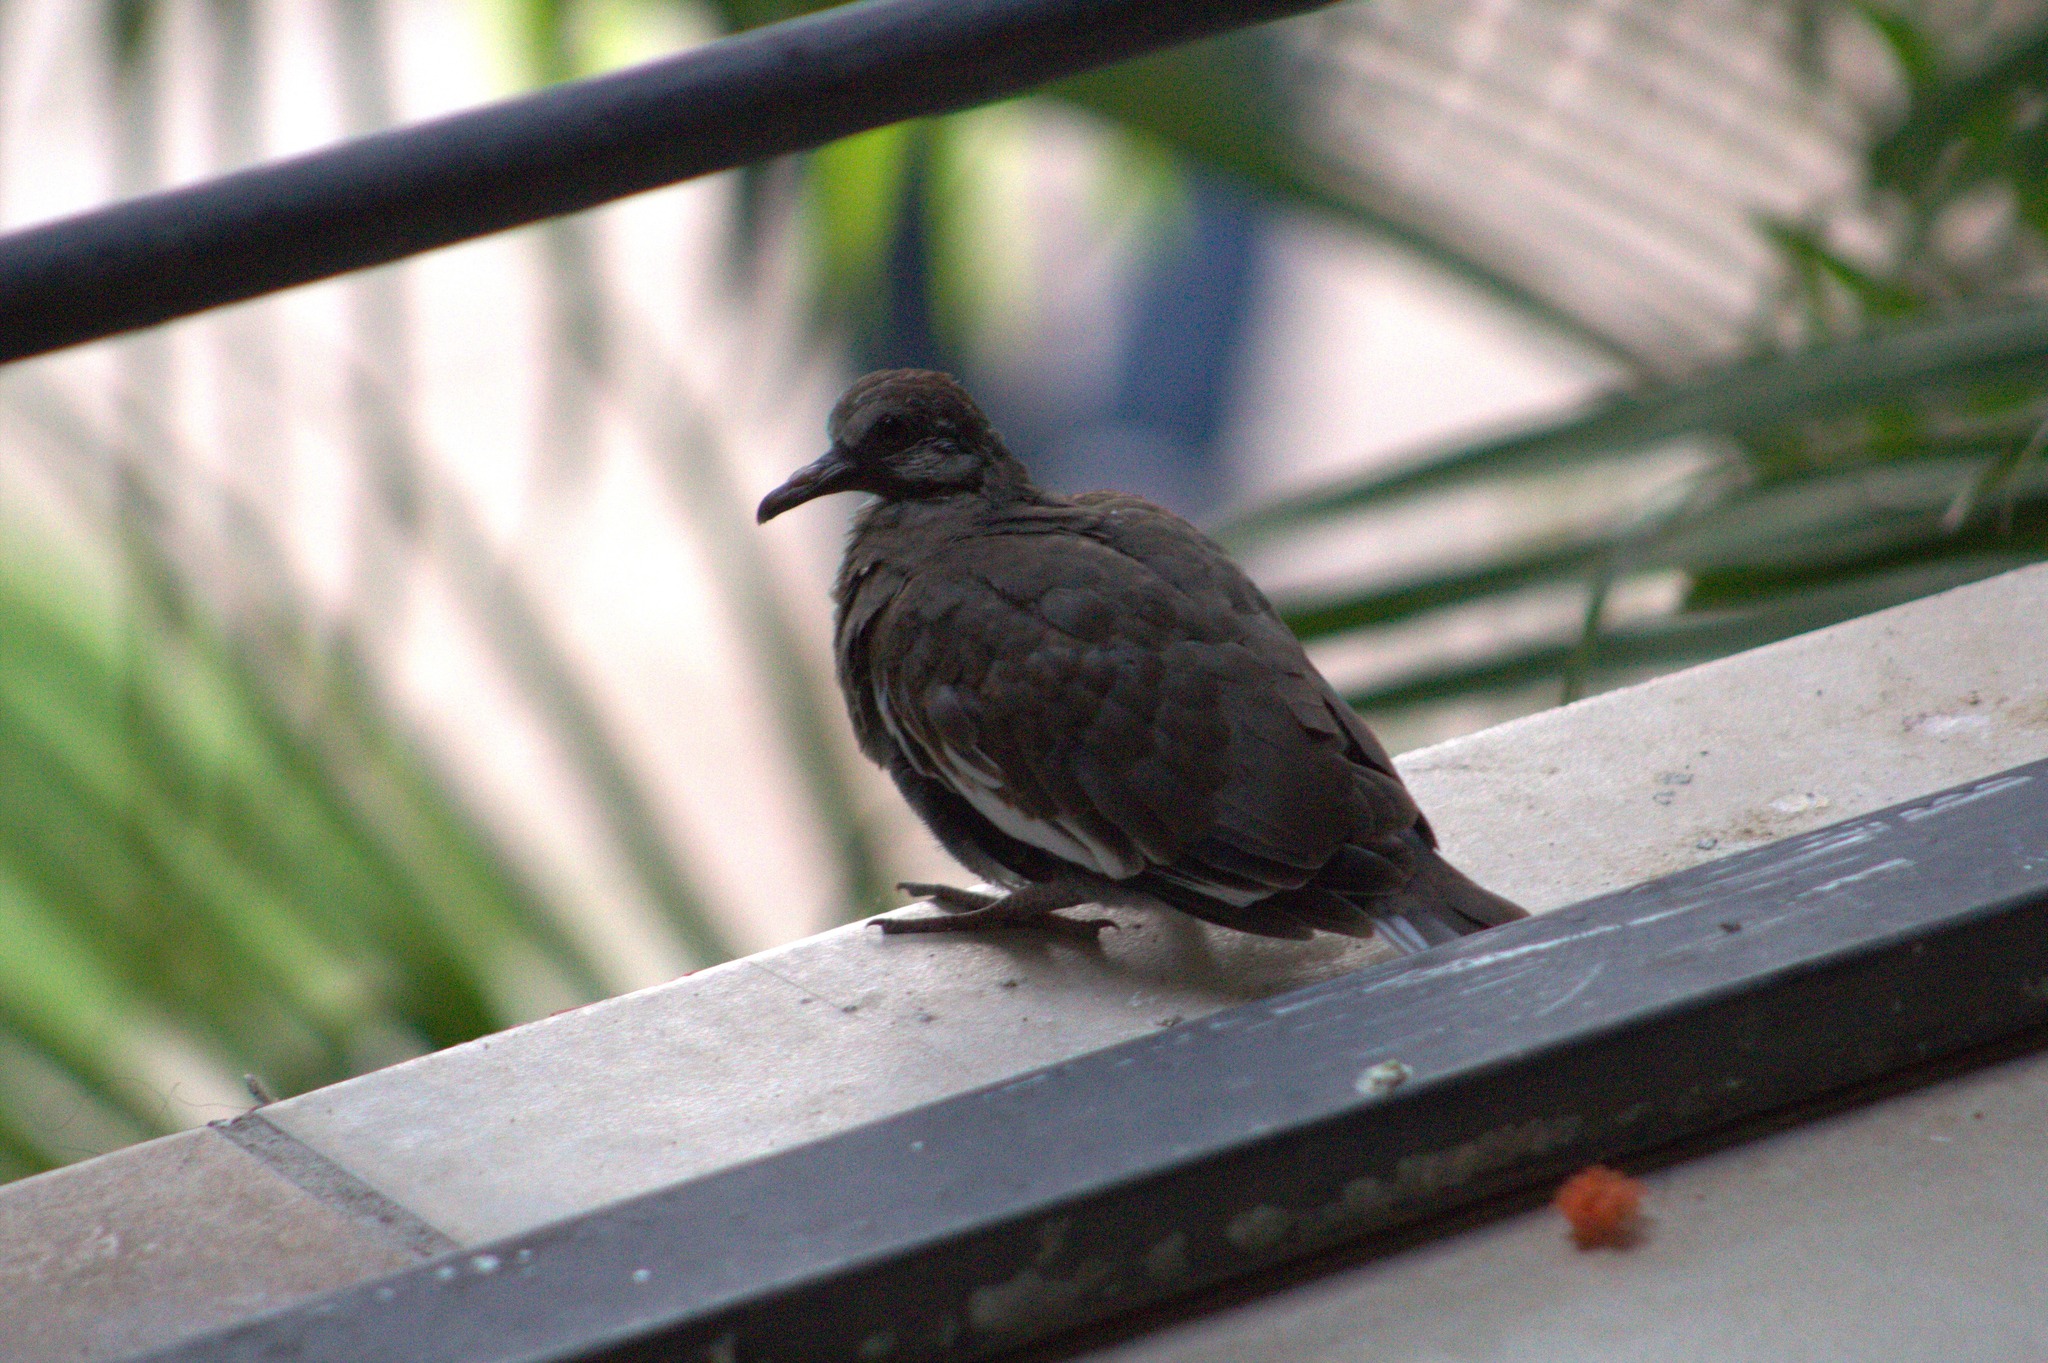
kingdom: Animalia
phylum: Chordata
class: Aves
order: Columbiformes
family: Columbidae
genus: Zenaida
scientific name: Zenaida asiatica
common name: White-winged dove
